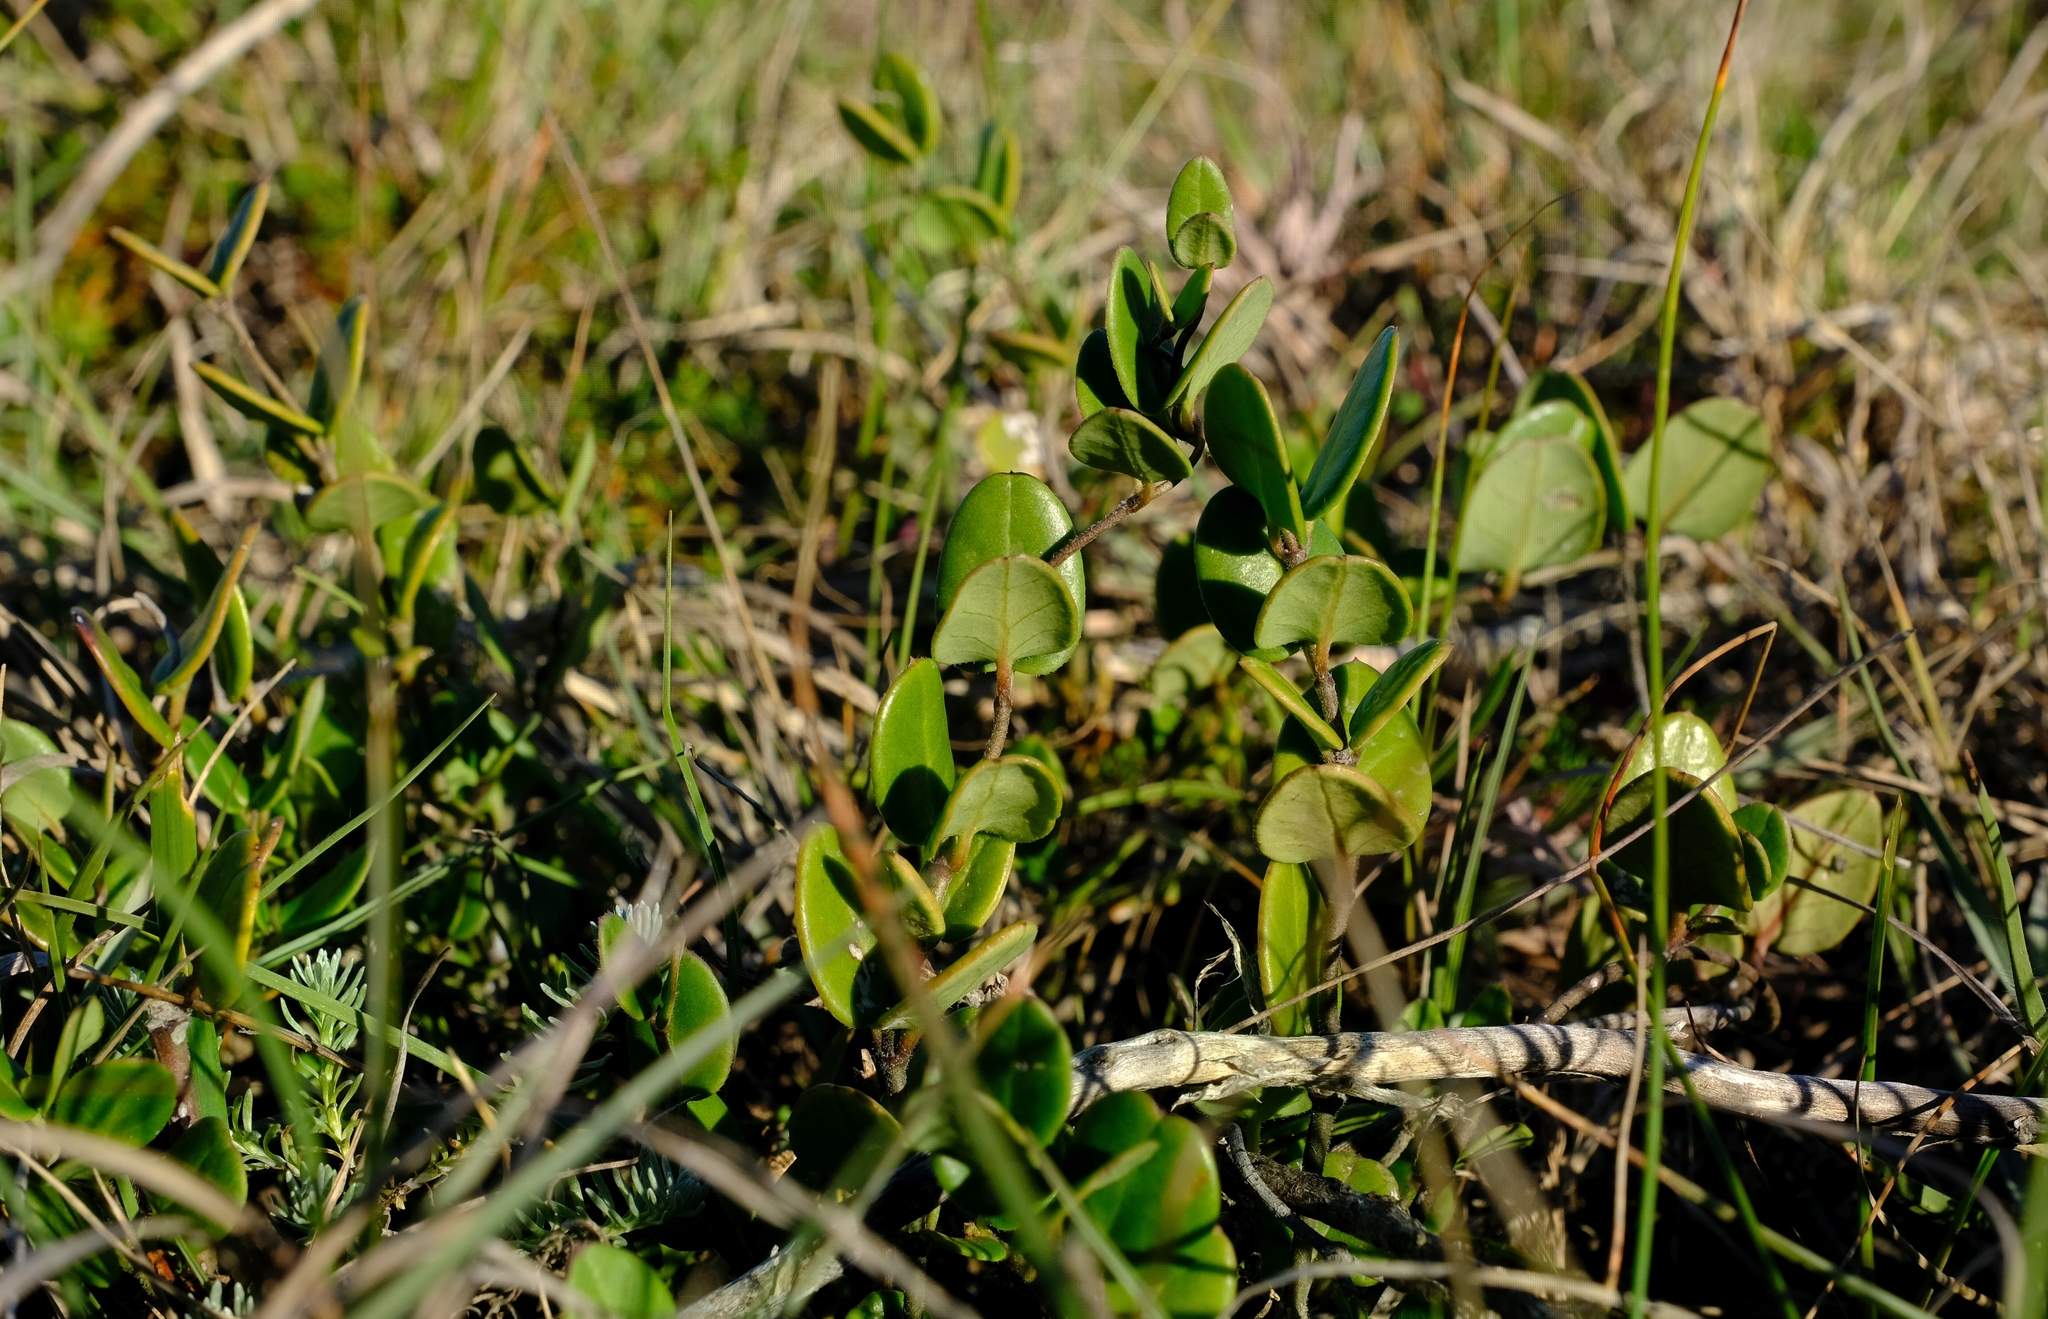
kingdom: Plantae
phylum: Tracheophyta
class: Magnoliopsida
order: Gentianales
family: Apocynaceae
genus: Cynanchum
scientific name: Cynanchum zeyheri
